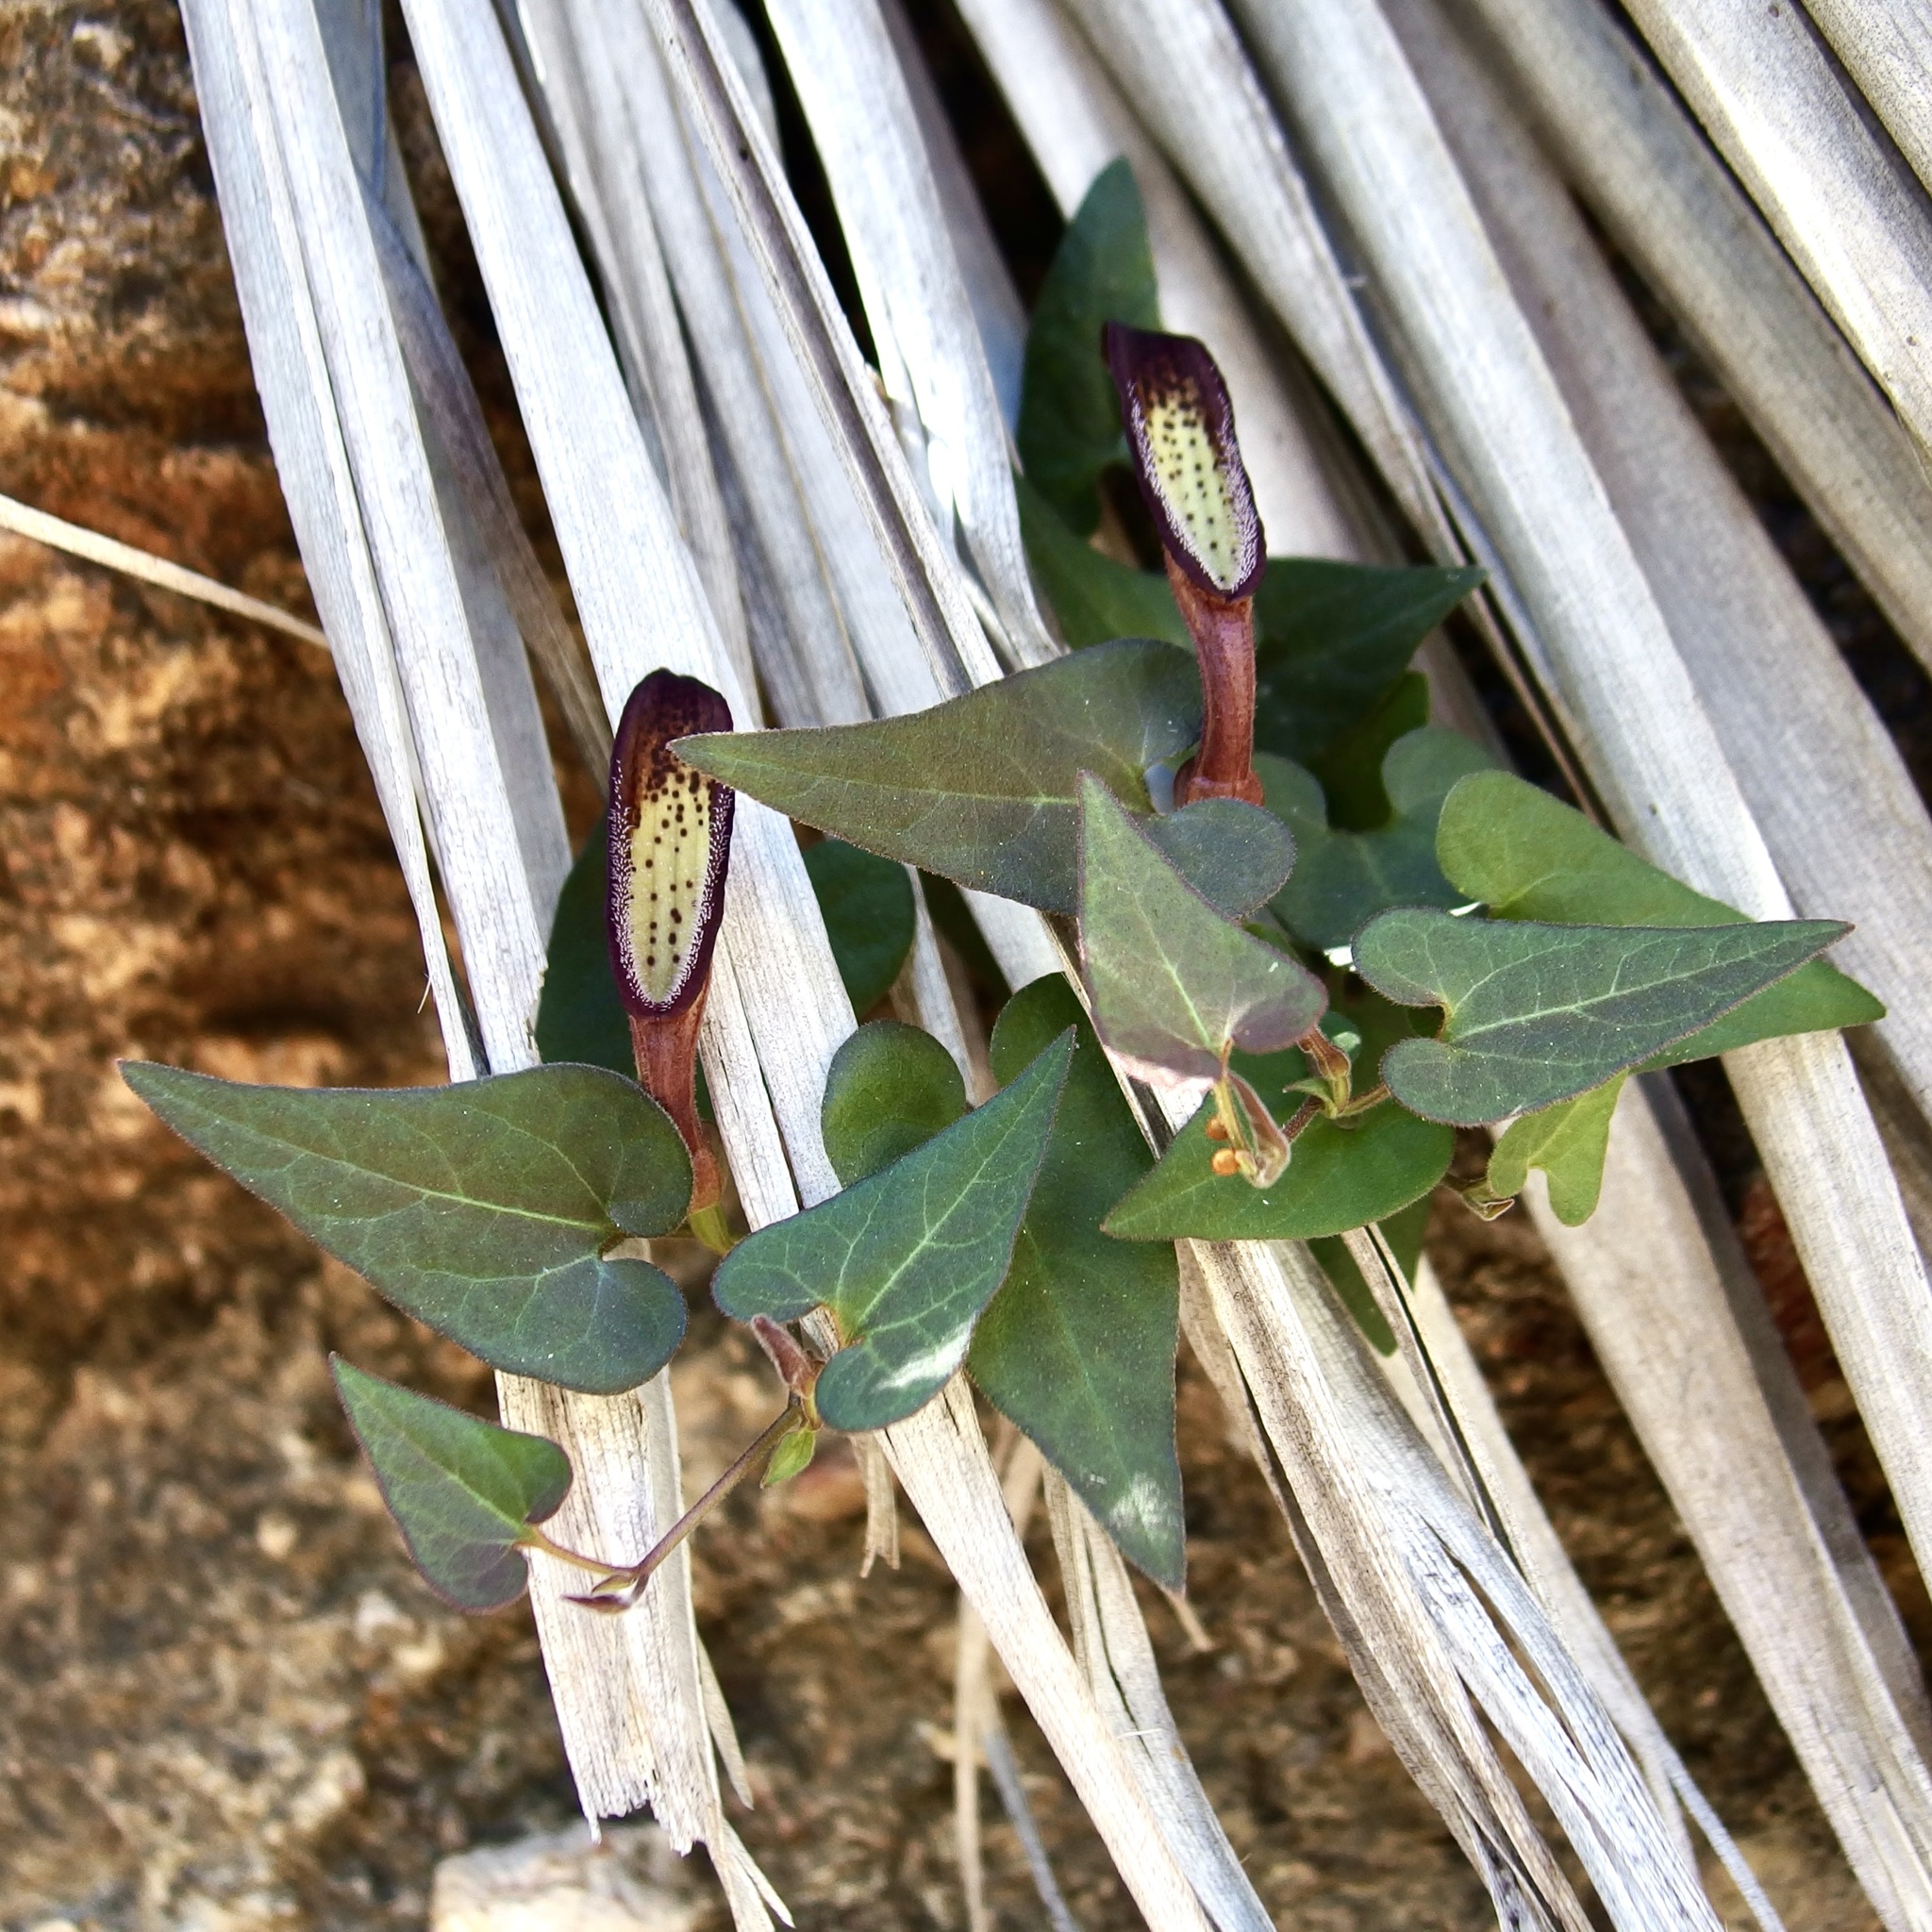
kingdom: Plantae
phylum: Tracheophyta
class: Magnoliopsida
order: Piperales
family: Aristolochiaceae
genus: Aristolochia
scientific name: Aristolochia watsonii
